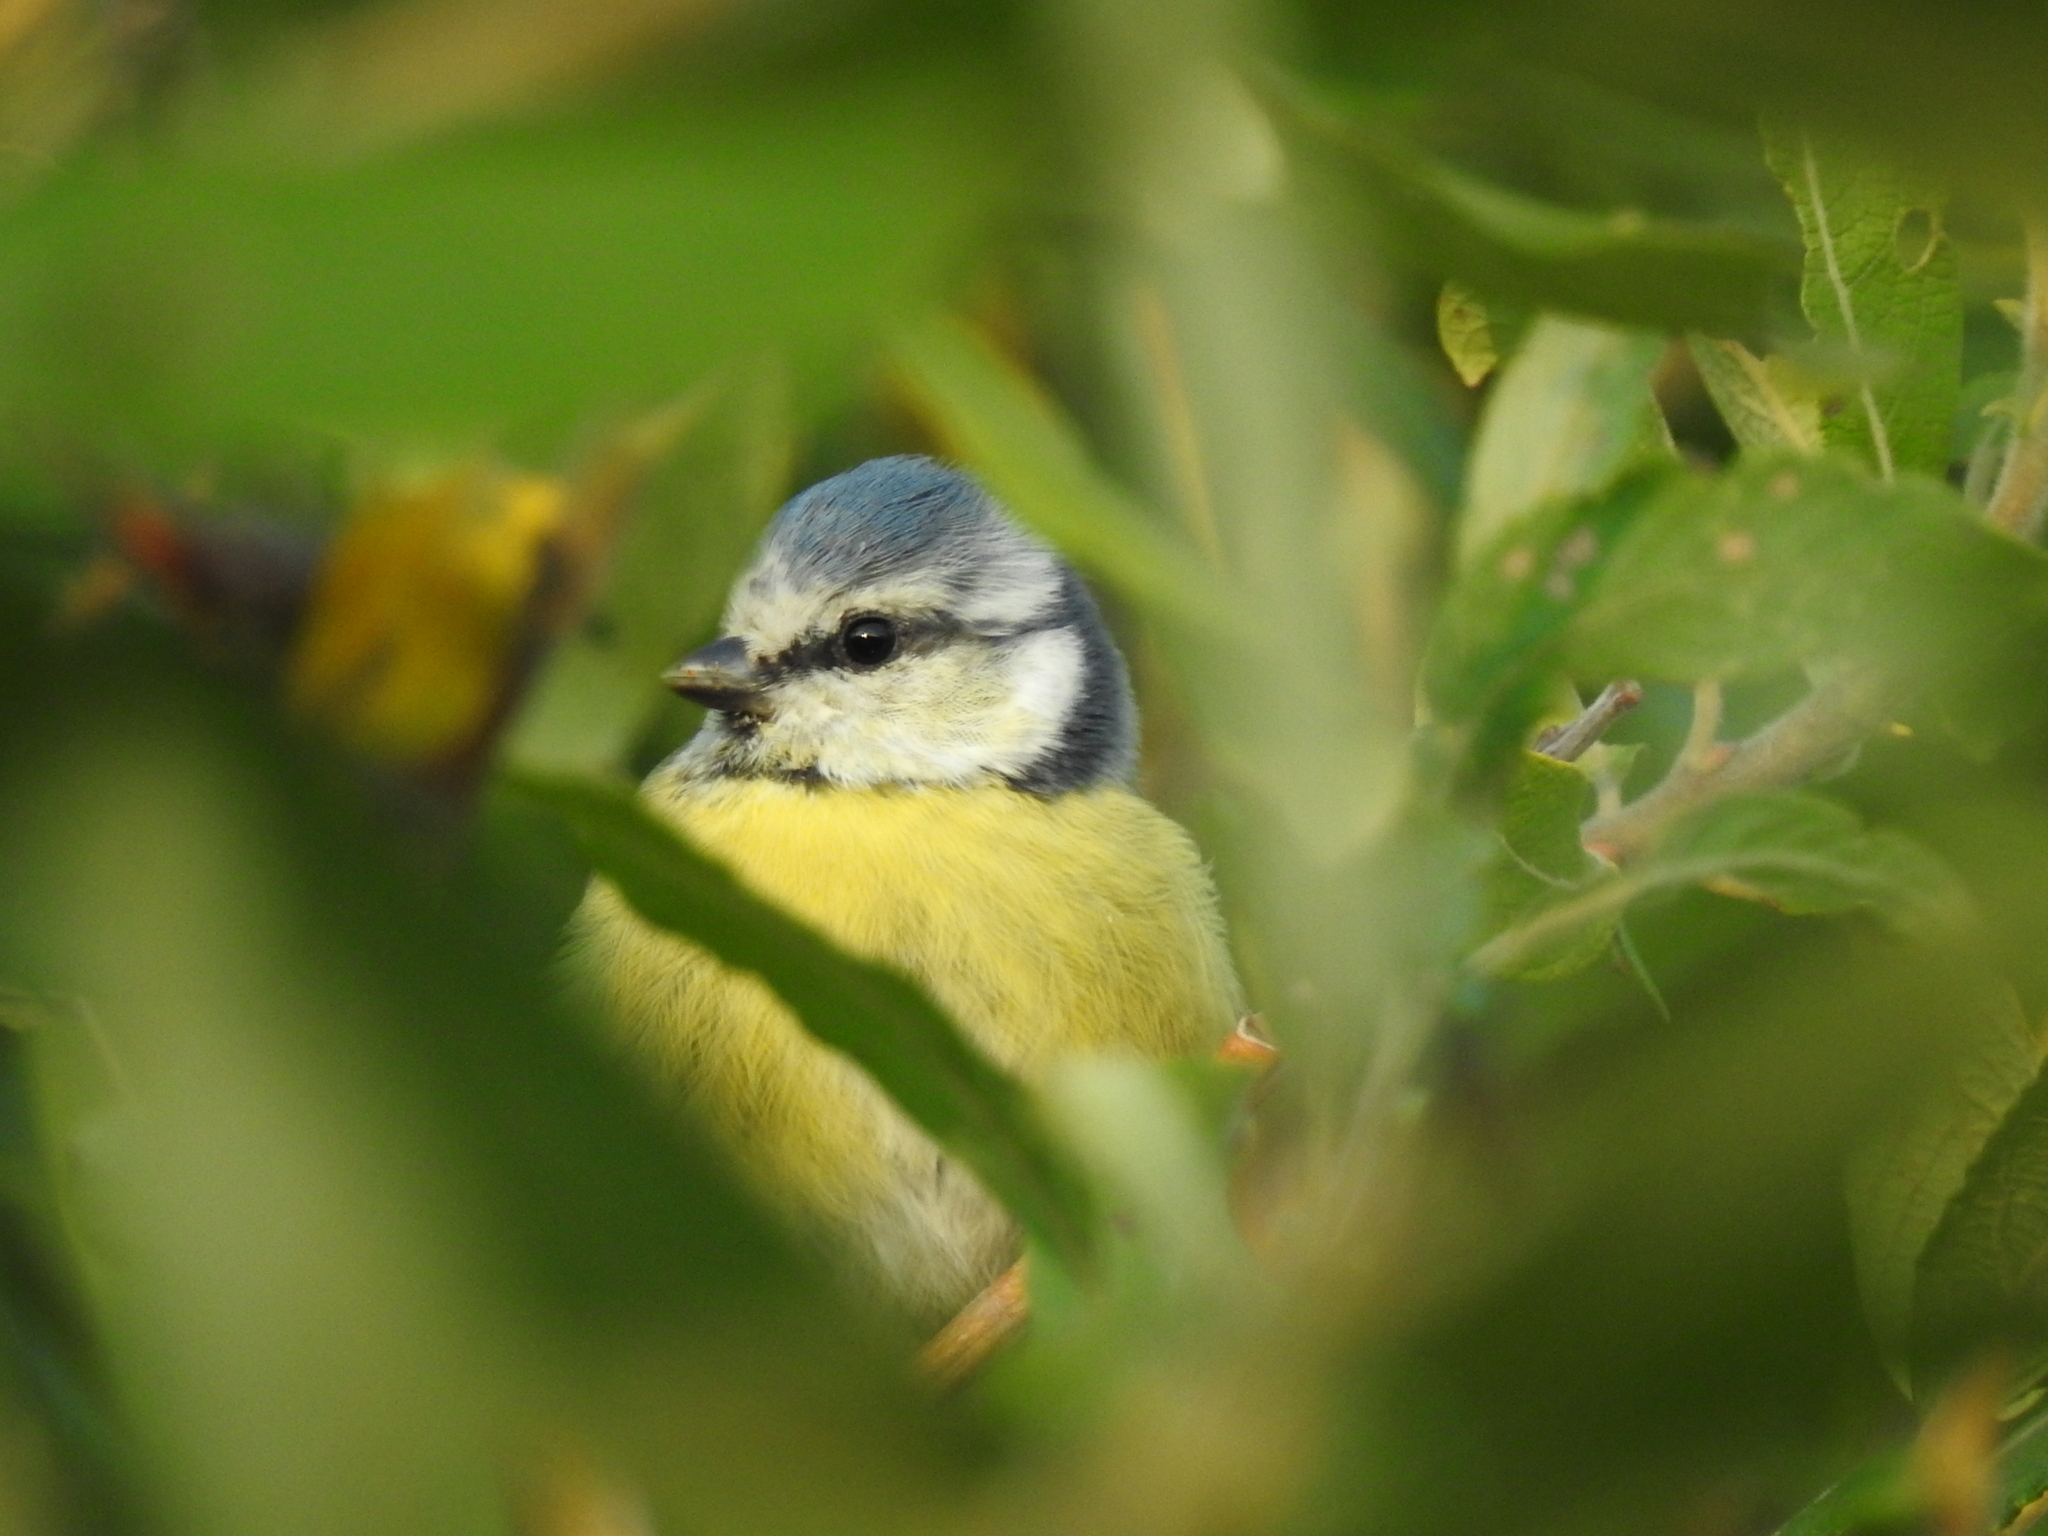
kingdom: Animalia
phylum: Chordata
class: Aves
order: Passeriformes
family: Paridae
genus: Cyanistes
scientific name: Cyanistes caeruleus
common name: Eurasian blue tit
